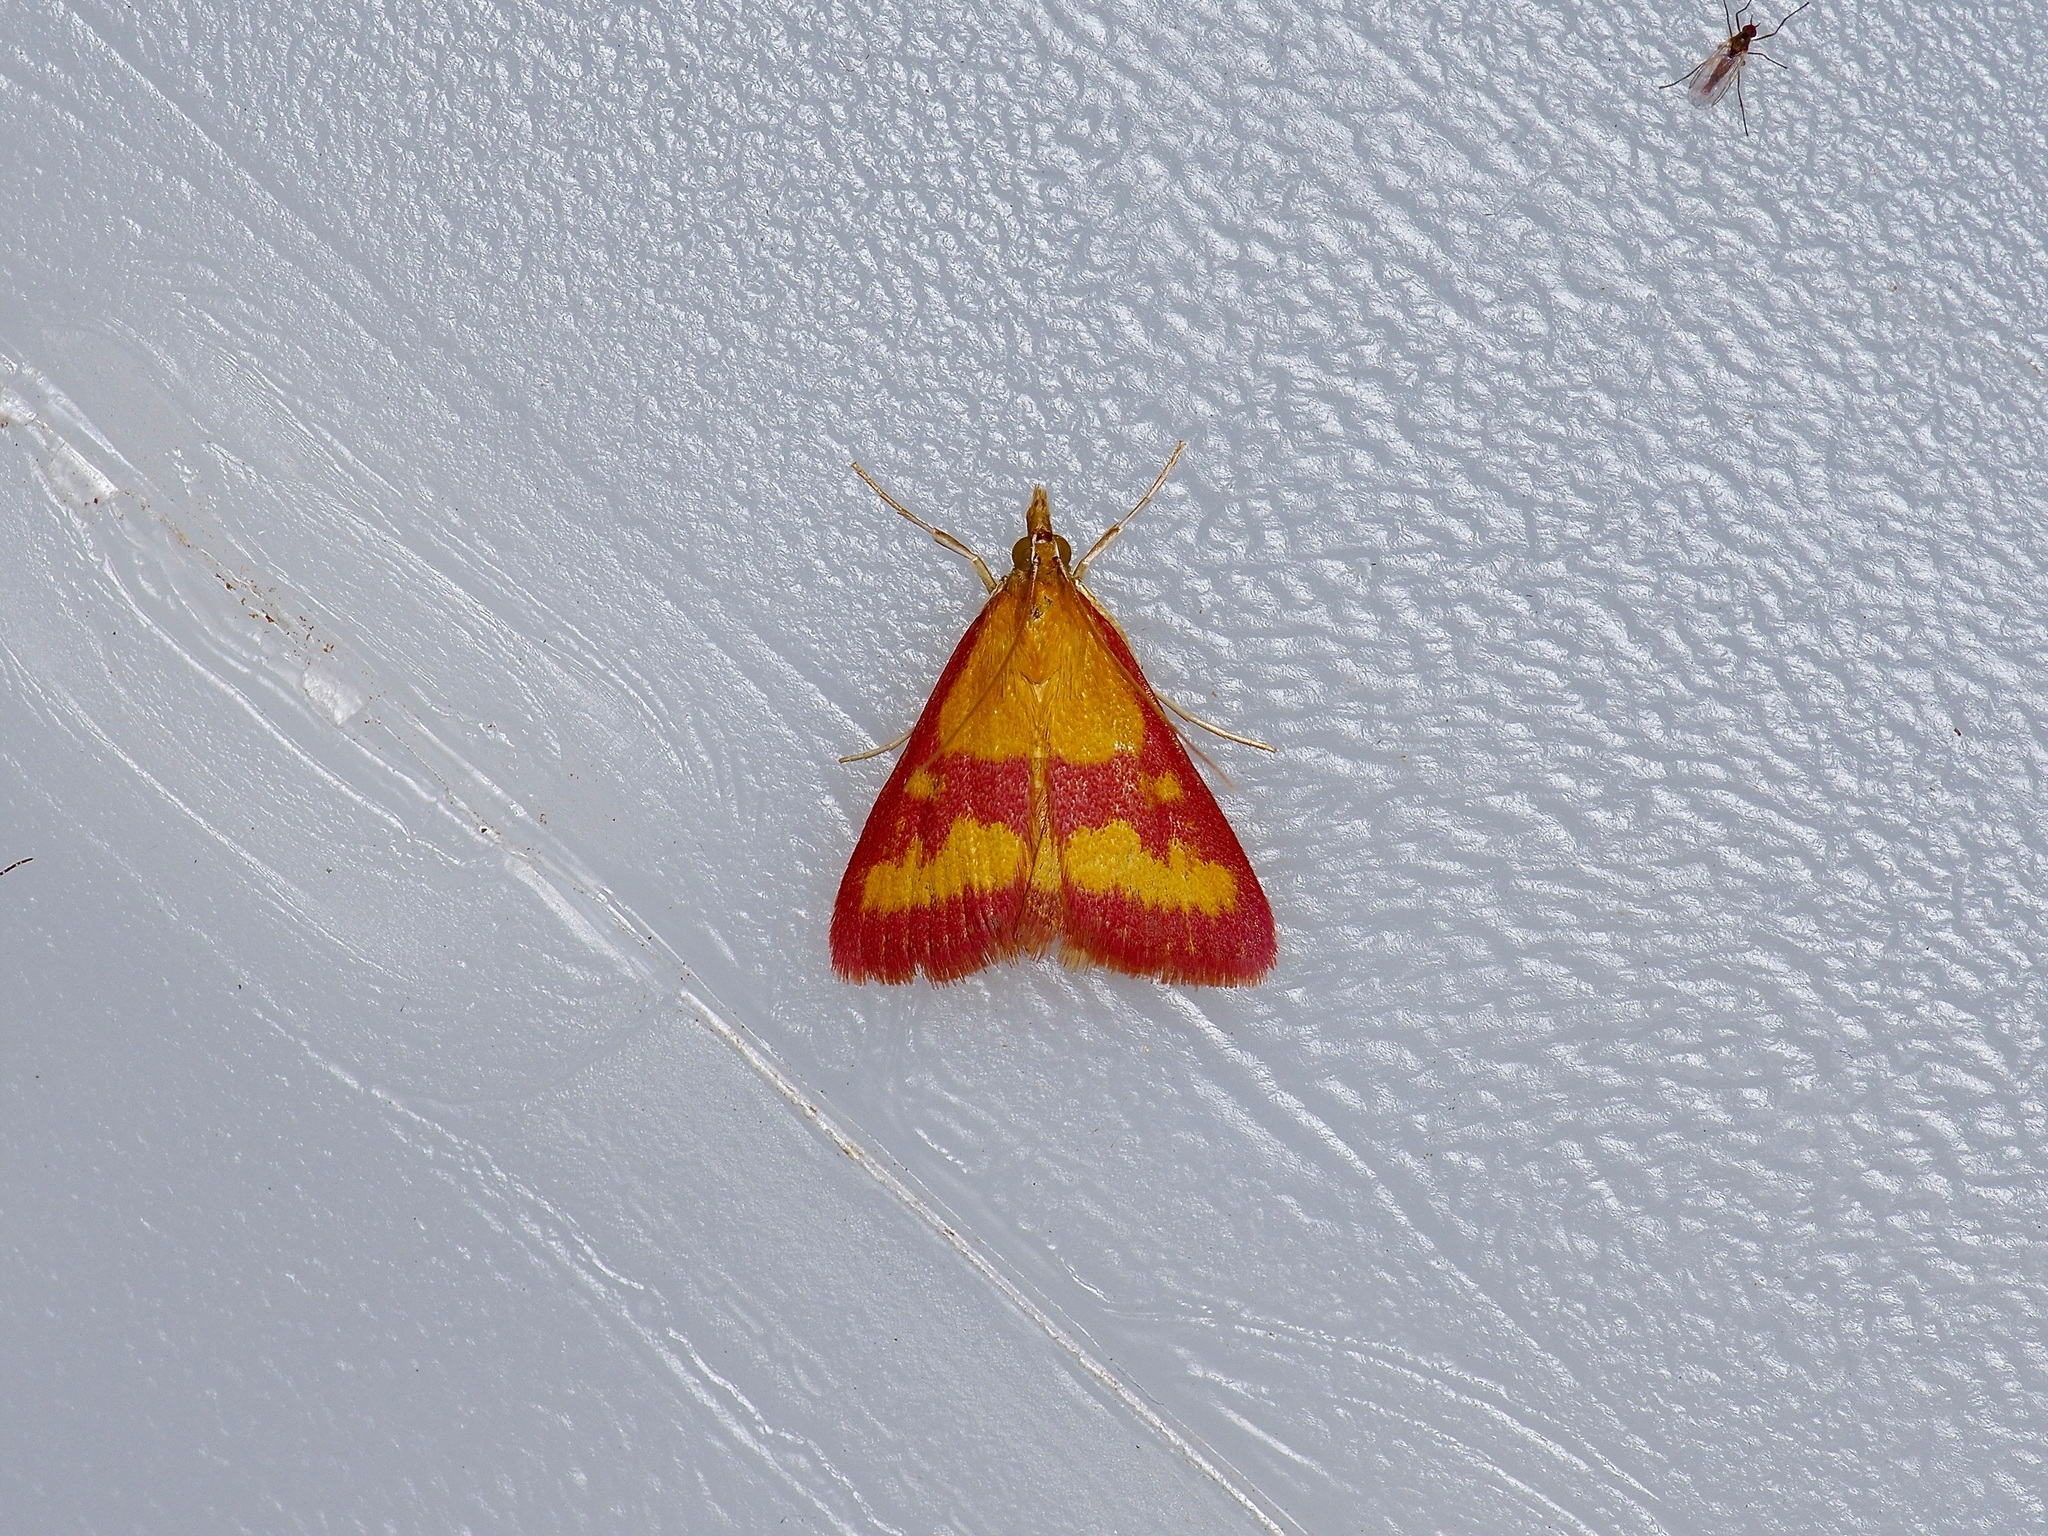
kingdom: Animalia
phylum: Arthropoda
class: Insecta
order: Lepidoptera
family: Crambidae
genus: Pyrausta
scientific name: Pyrausta laticlavia
